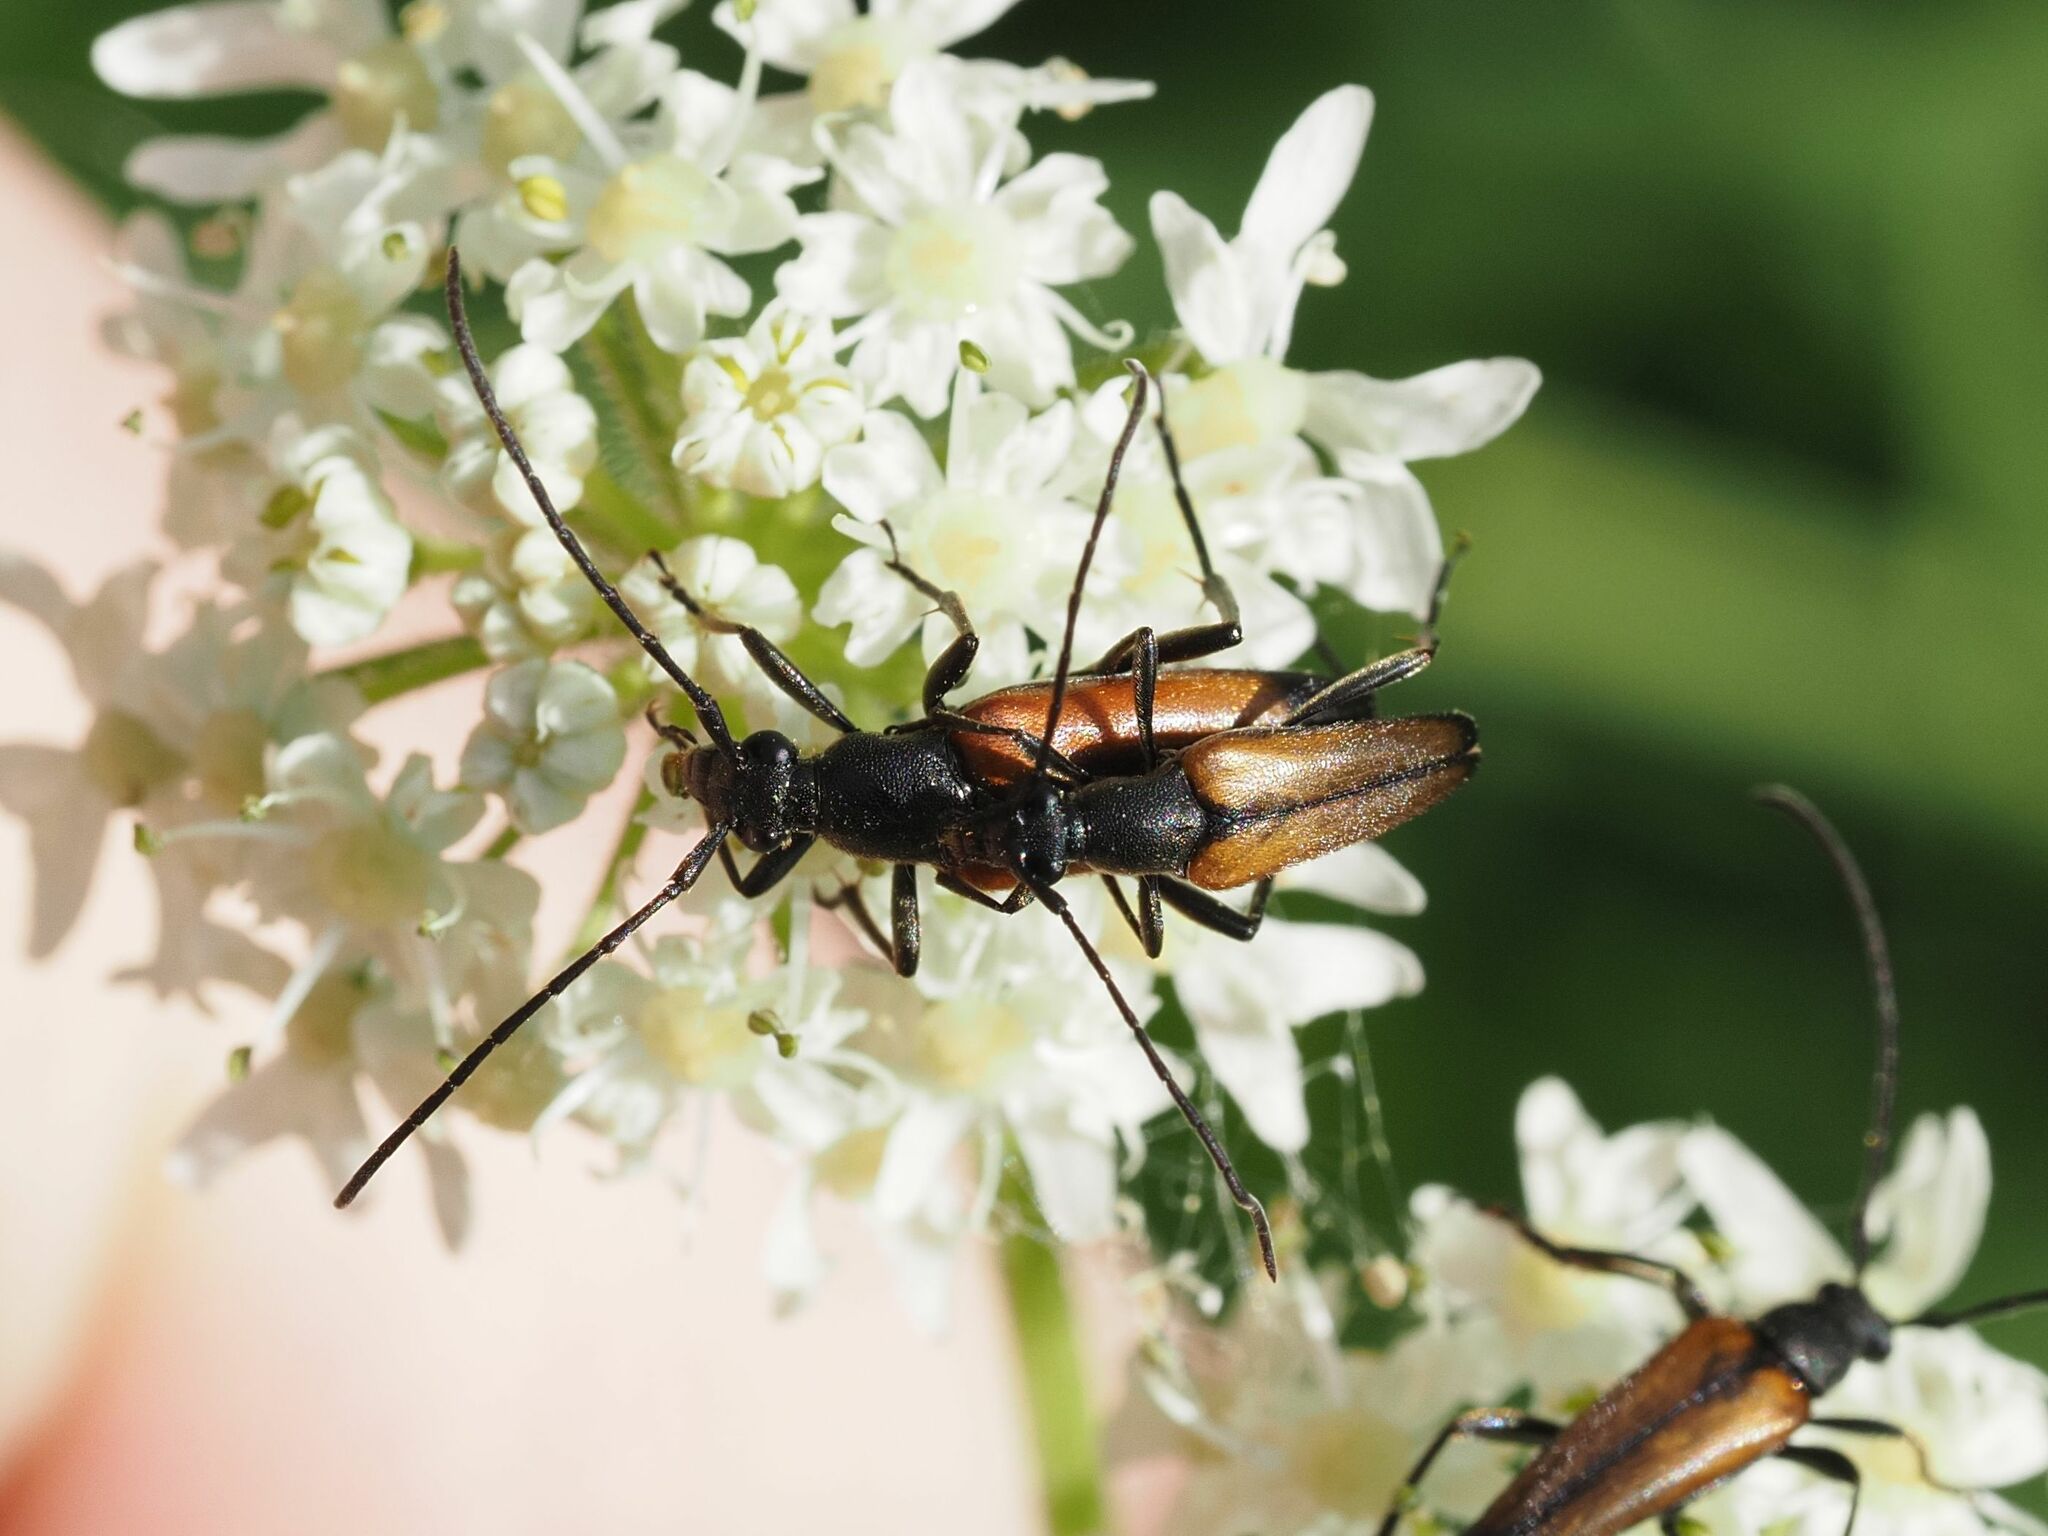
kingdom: Animalia
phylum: Arthropoda
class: Insecta
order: Coleoptera
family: Cerambycidae
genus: Stenurella
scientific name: Stenurella melanura
